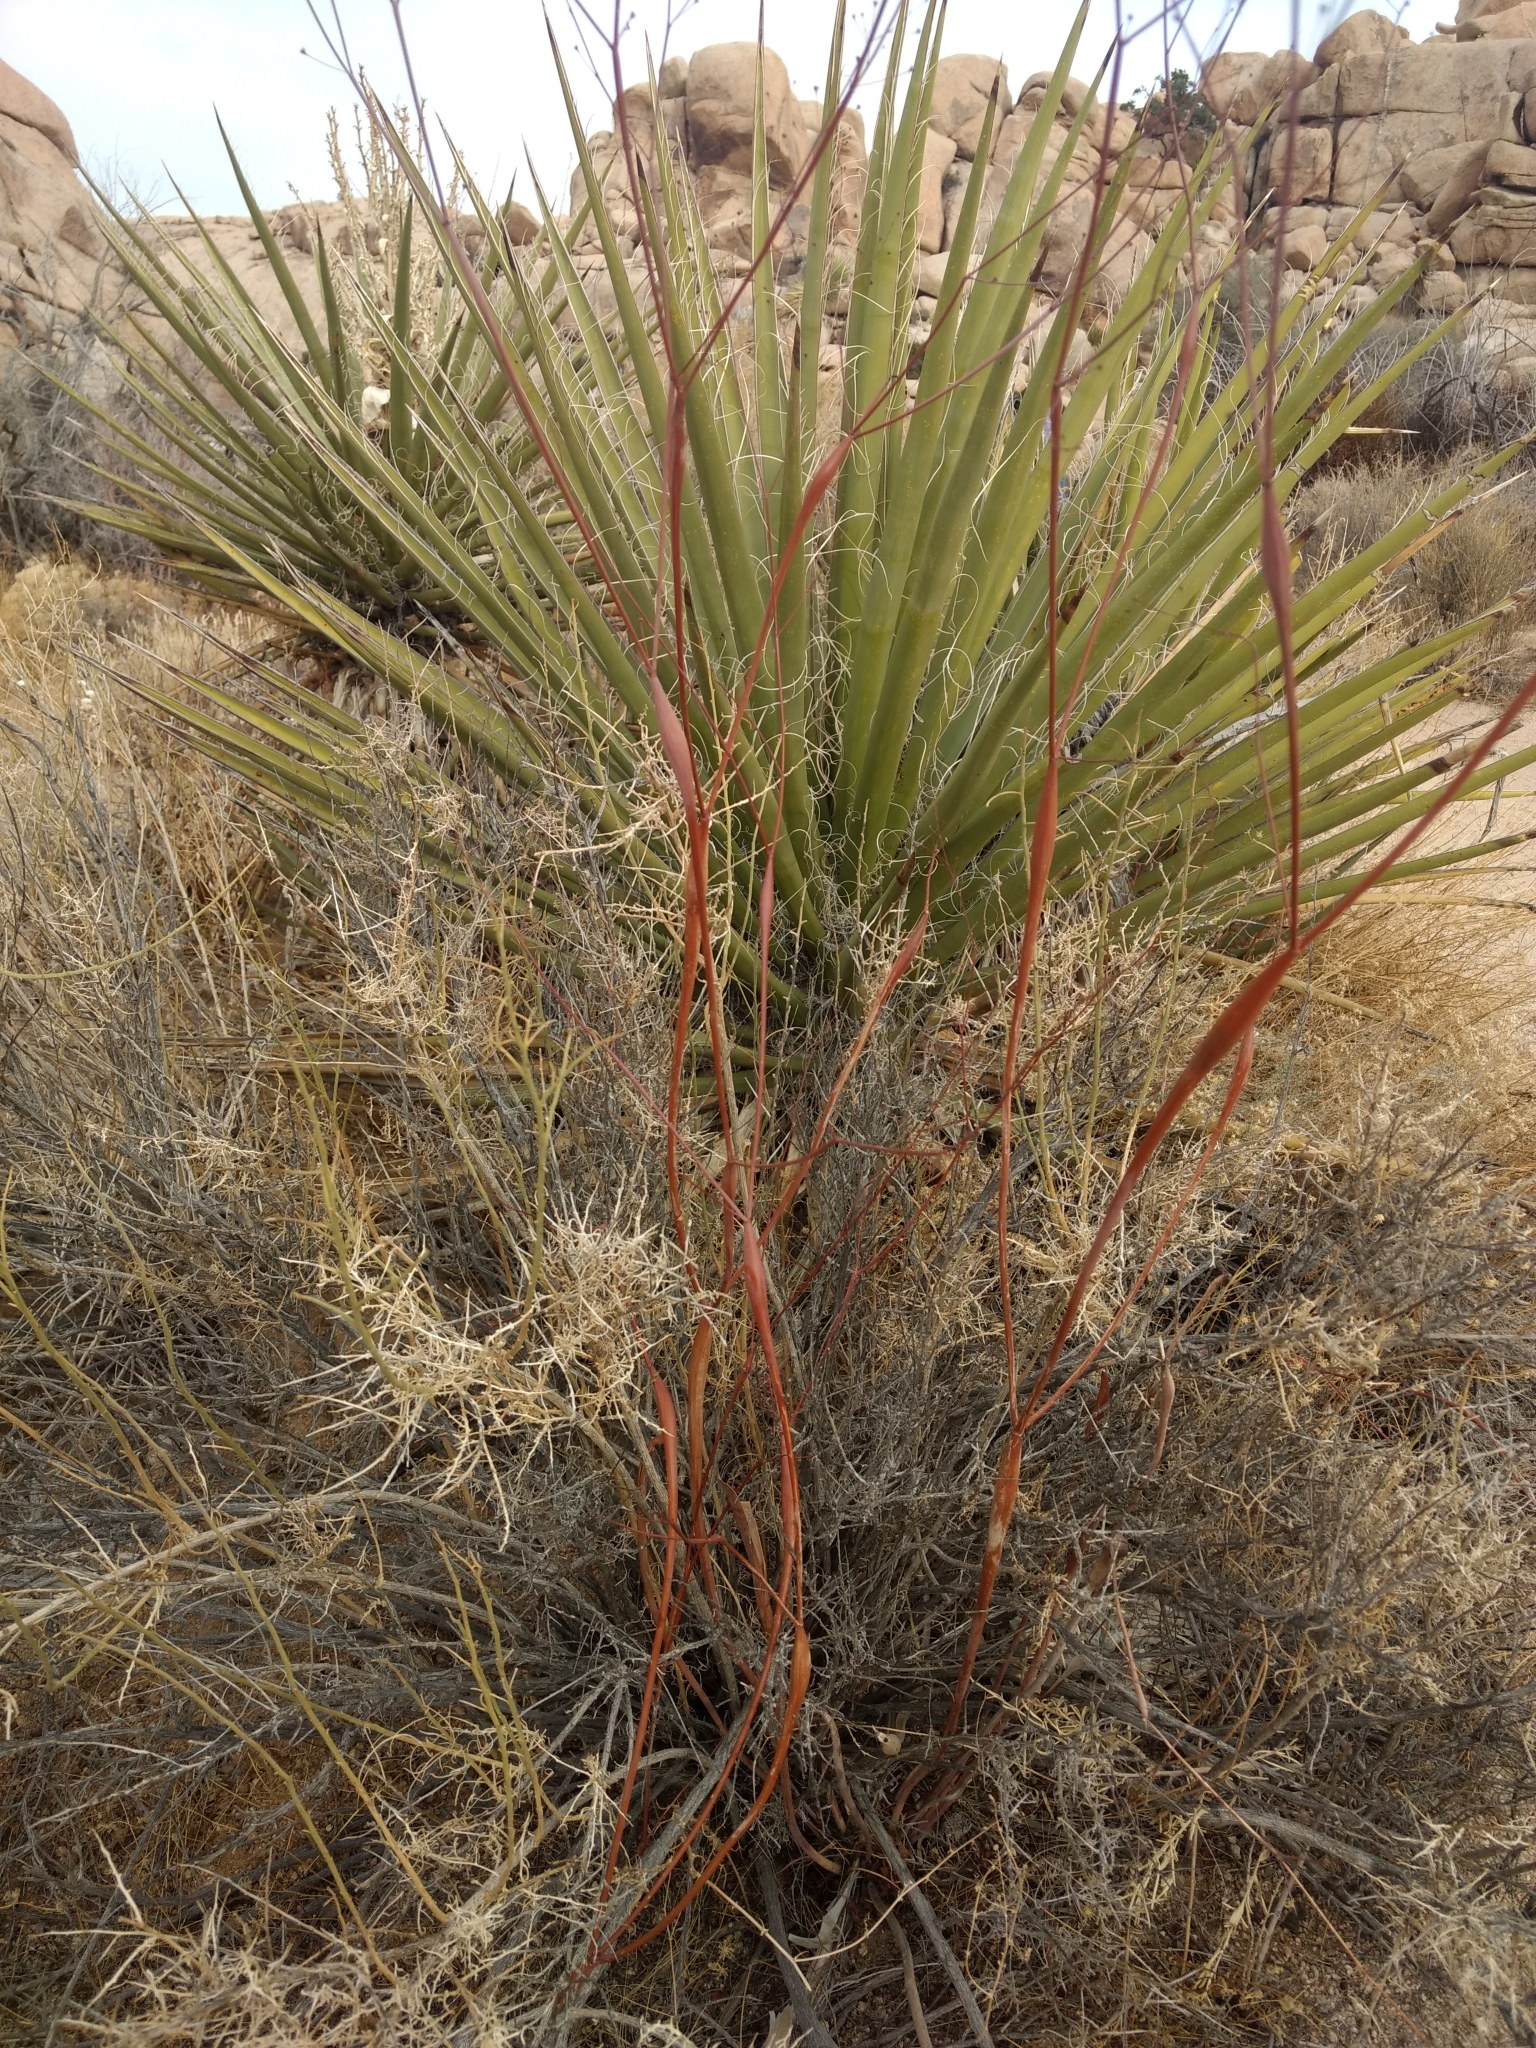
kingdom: Plantae
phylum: Tracheophyta
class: Magnoliopsida
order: Caryophyllales
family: Polygonaceae
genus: Eriogonum
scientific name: Eriogonum inflatum
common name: Desert trumpet
